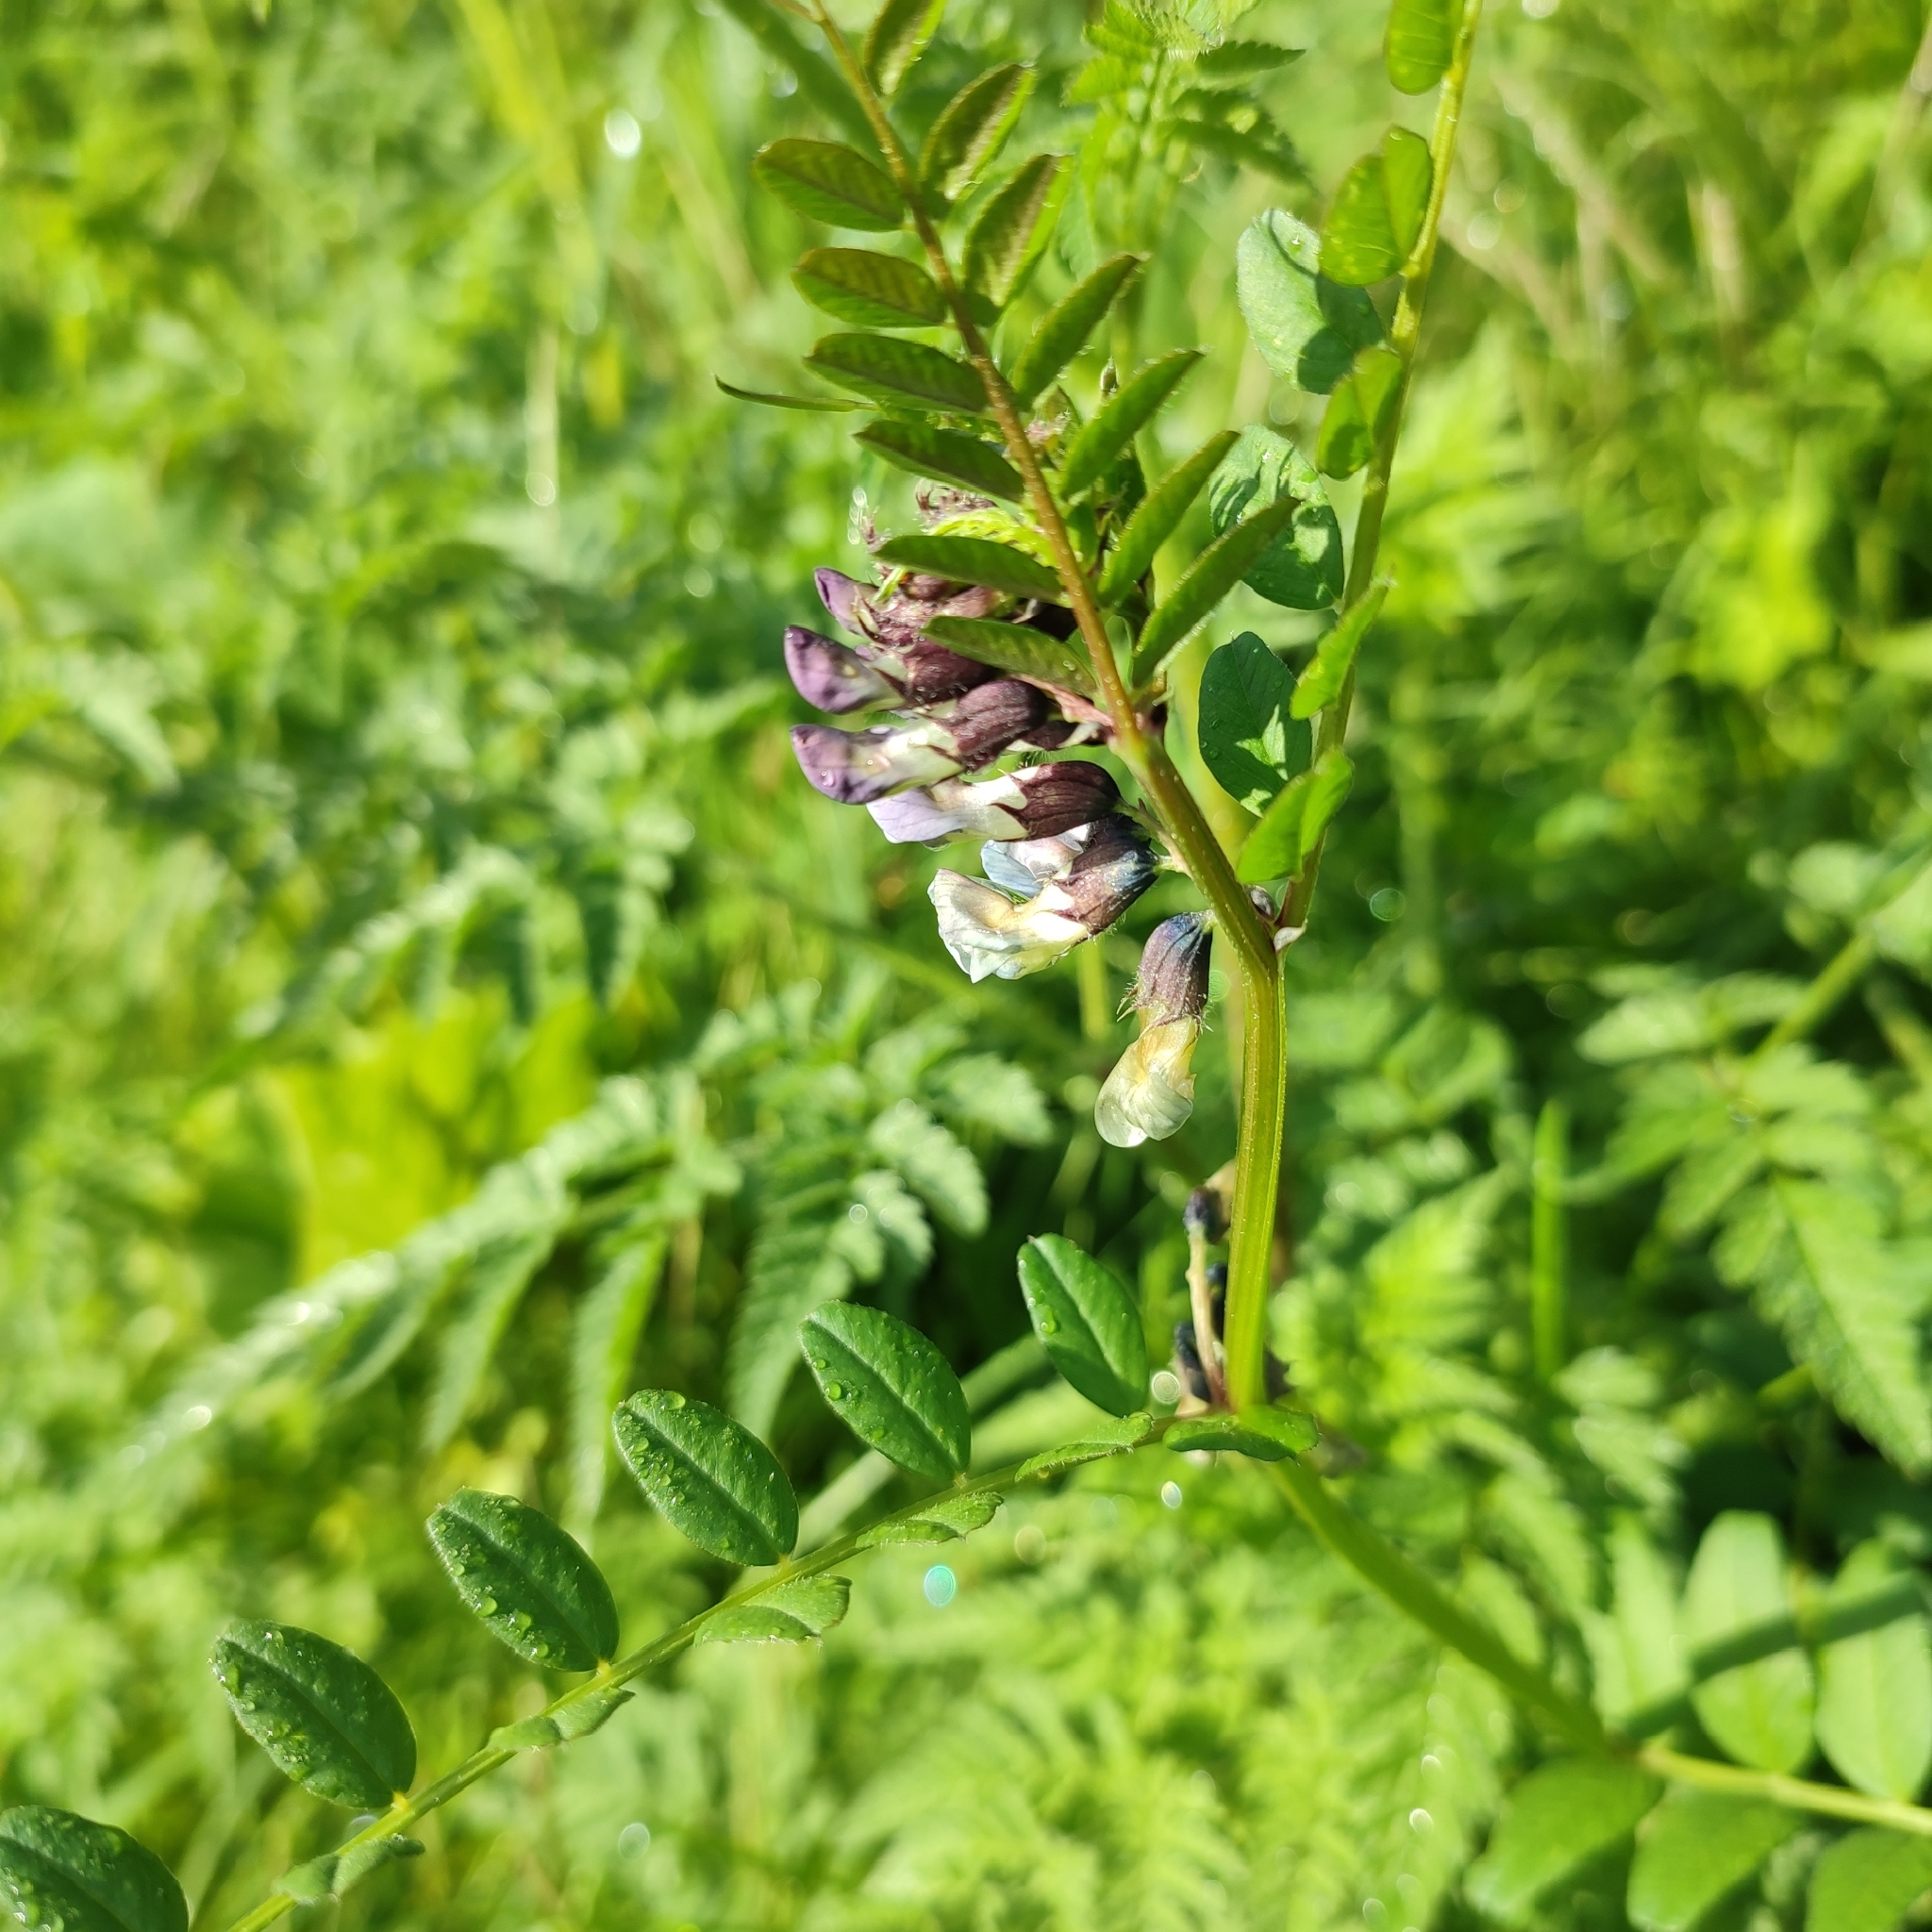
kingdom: Plantae
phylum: Tracheophyta
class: Magnoliopsida
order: Fabales
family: Fabaceae
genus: Vicia
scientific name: Vicia sepium
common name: Bush vetch
